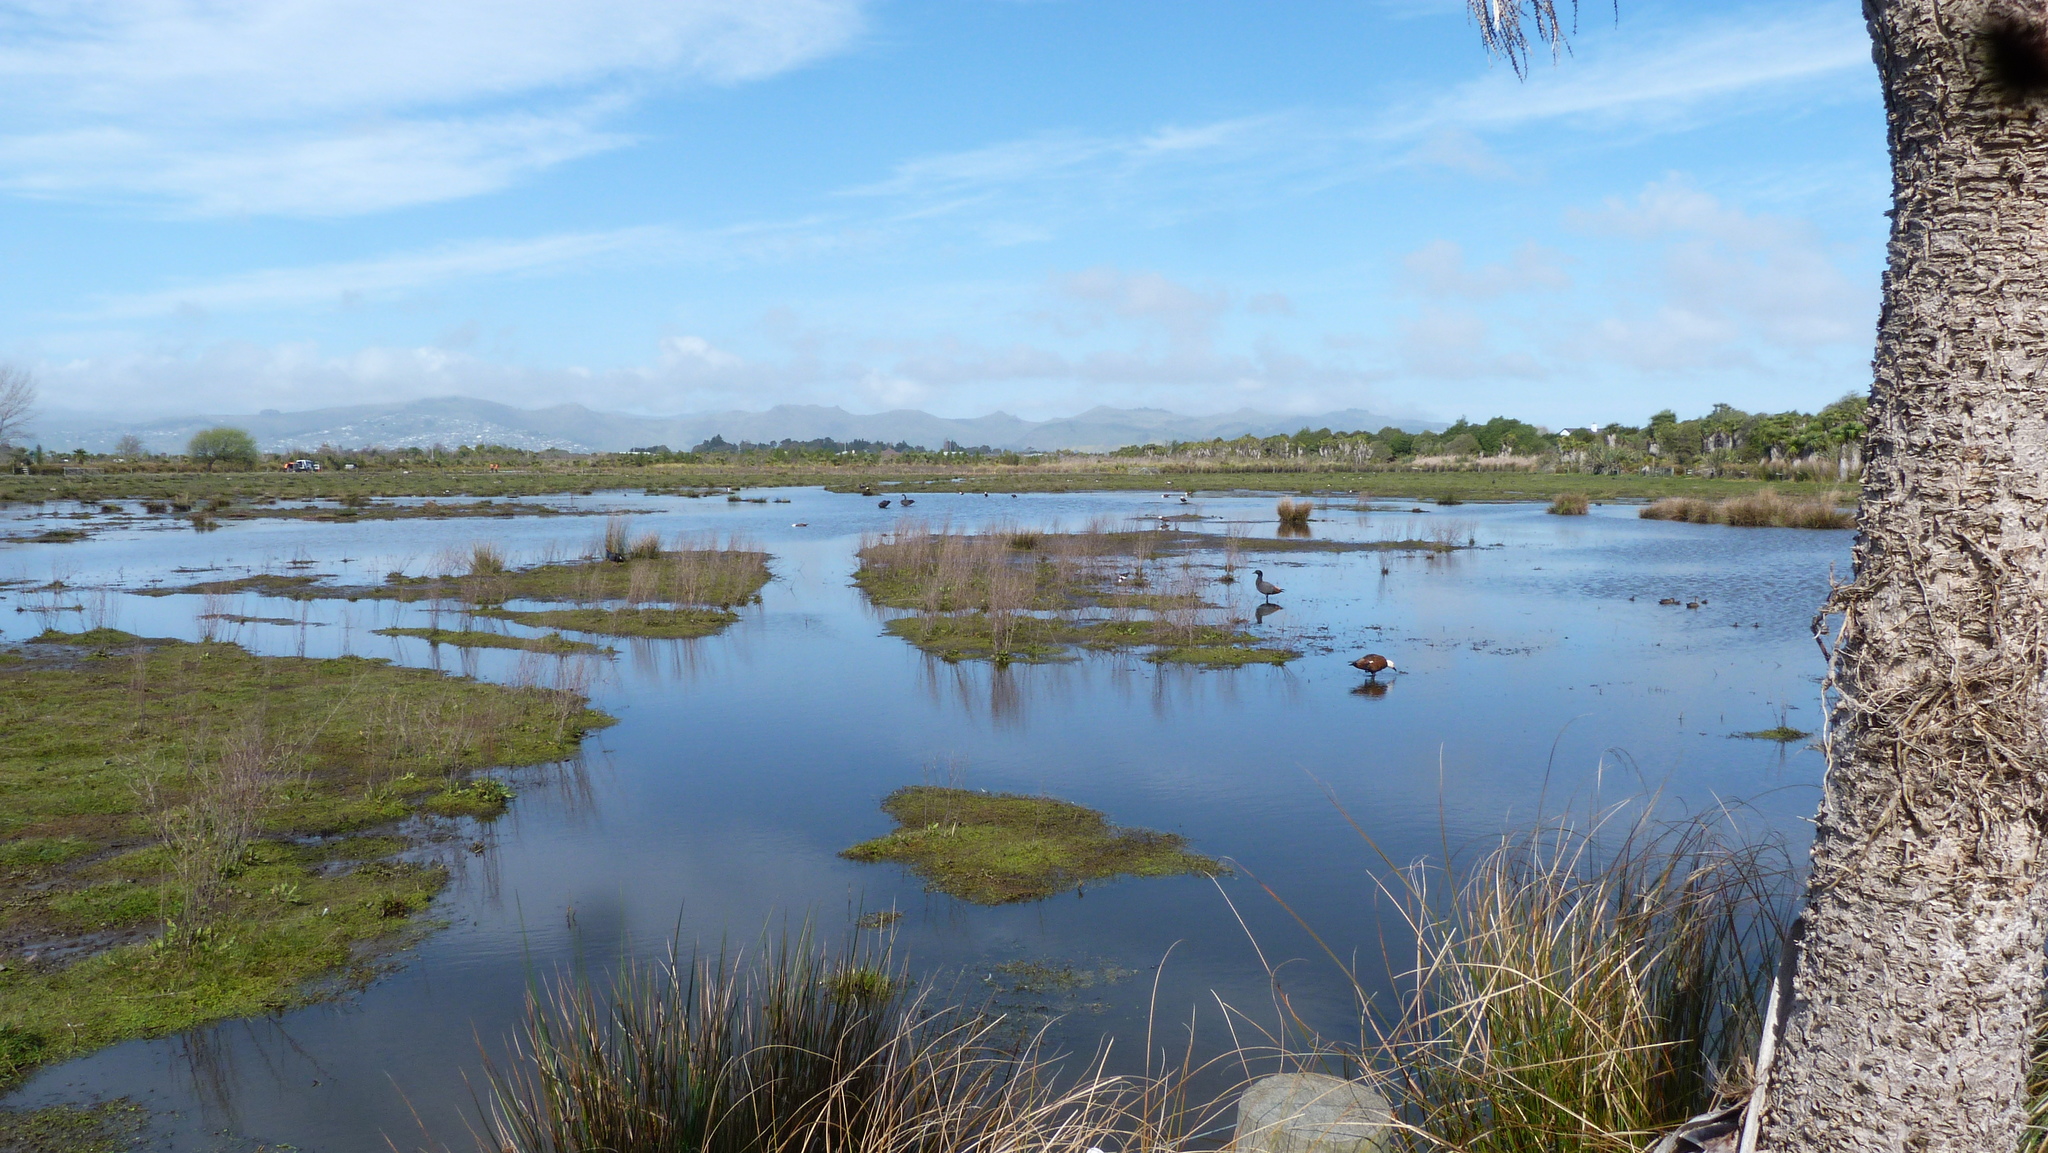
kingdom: Animalia
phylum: Chordata
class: Aves
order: Anseriformes
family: Anatidae
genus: Tadorna
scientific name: Tadorna variegata
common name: Paradise shelduck
